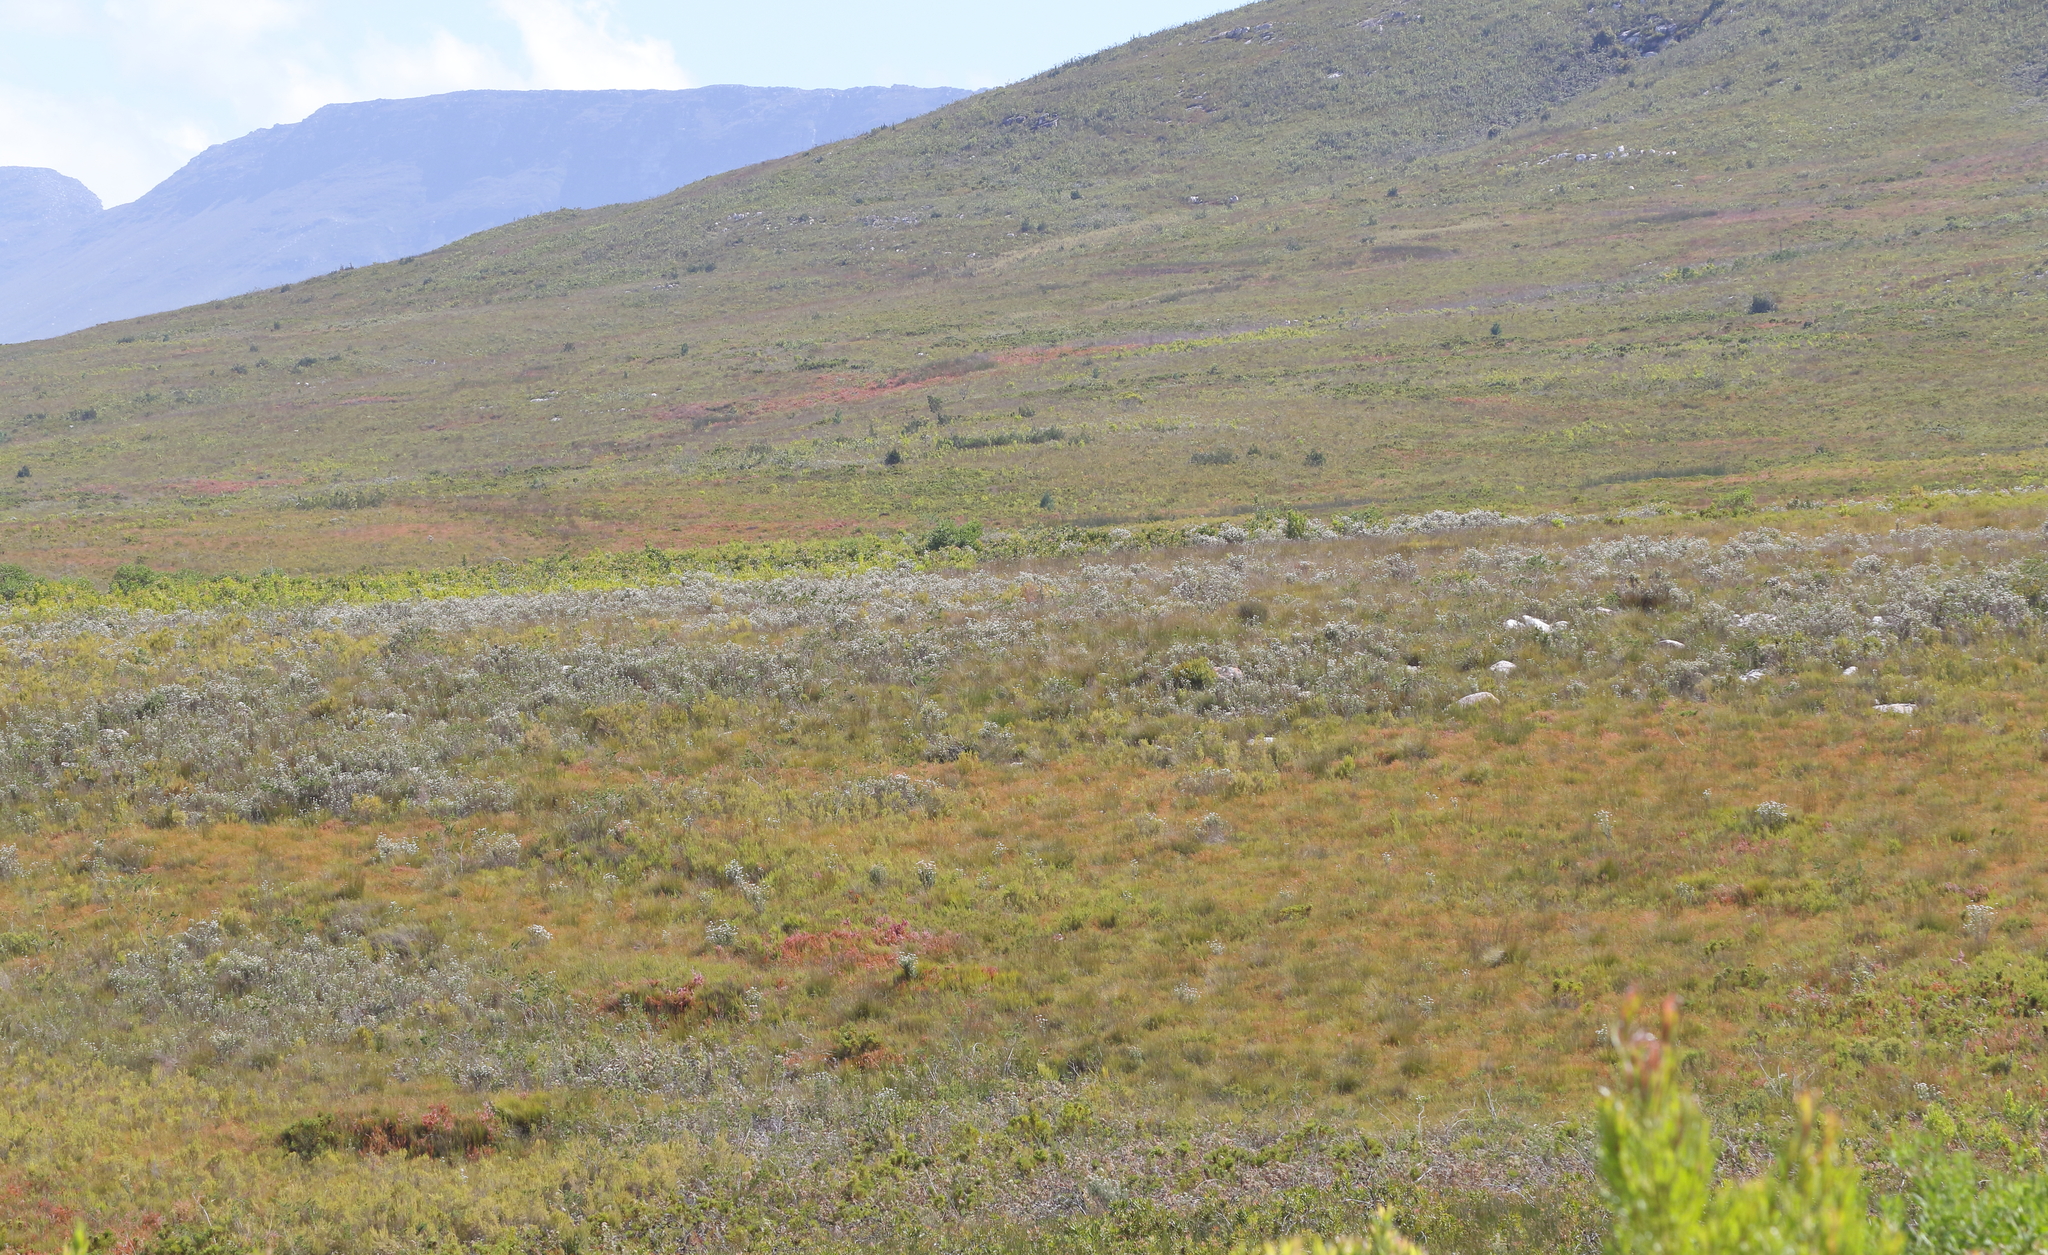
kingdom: Plantae
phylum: Tracheophyta
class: Magnoliopsida
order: Proteales
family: Proteaceae
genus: Protea
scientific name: Protea neriifolia
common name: Blue sugarbush
